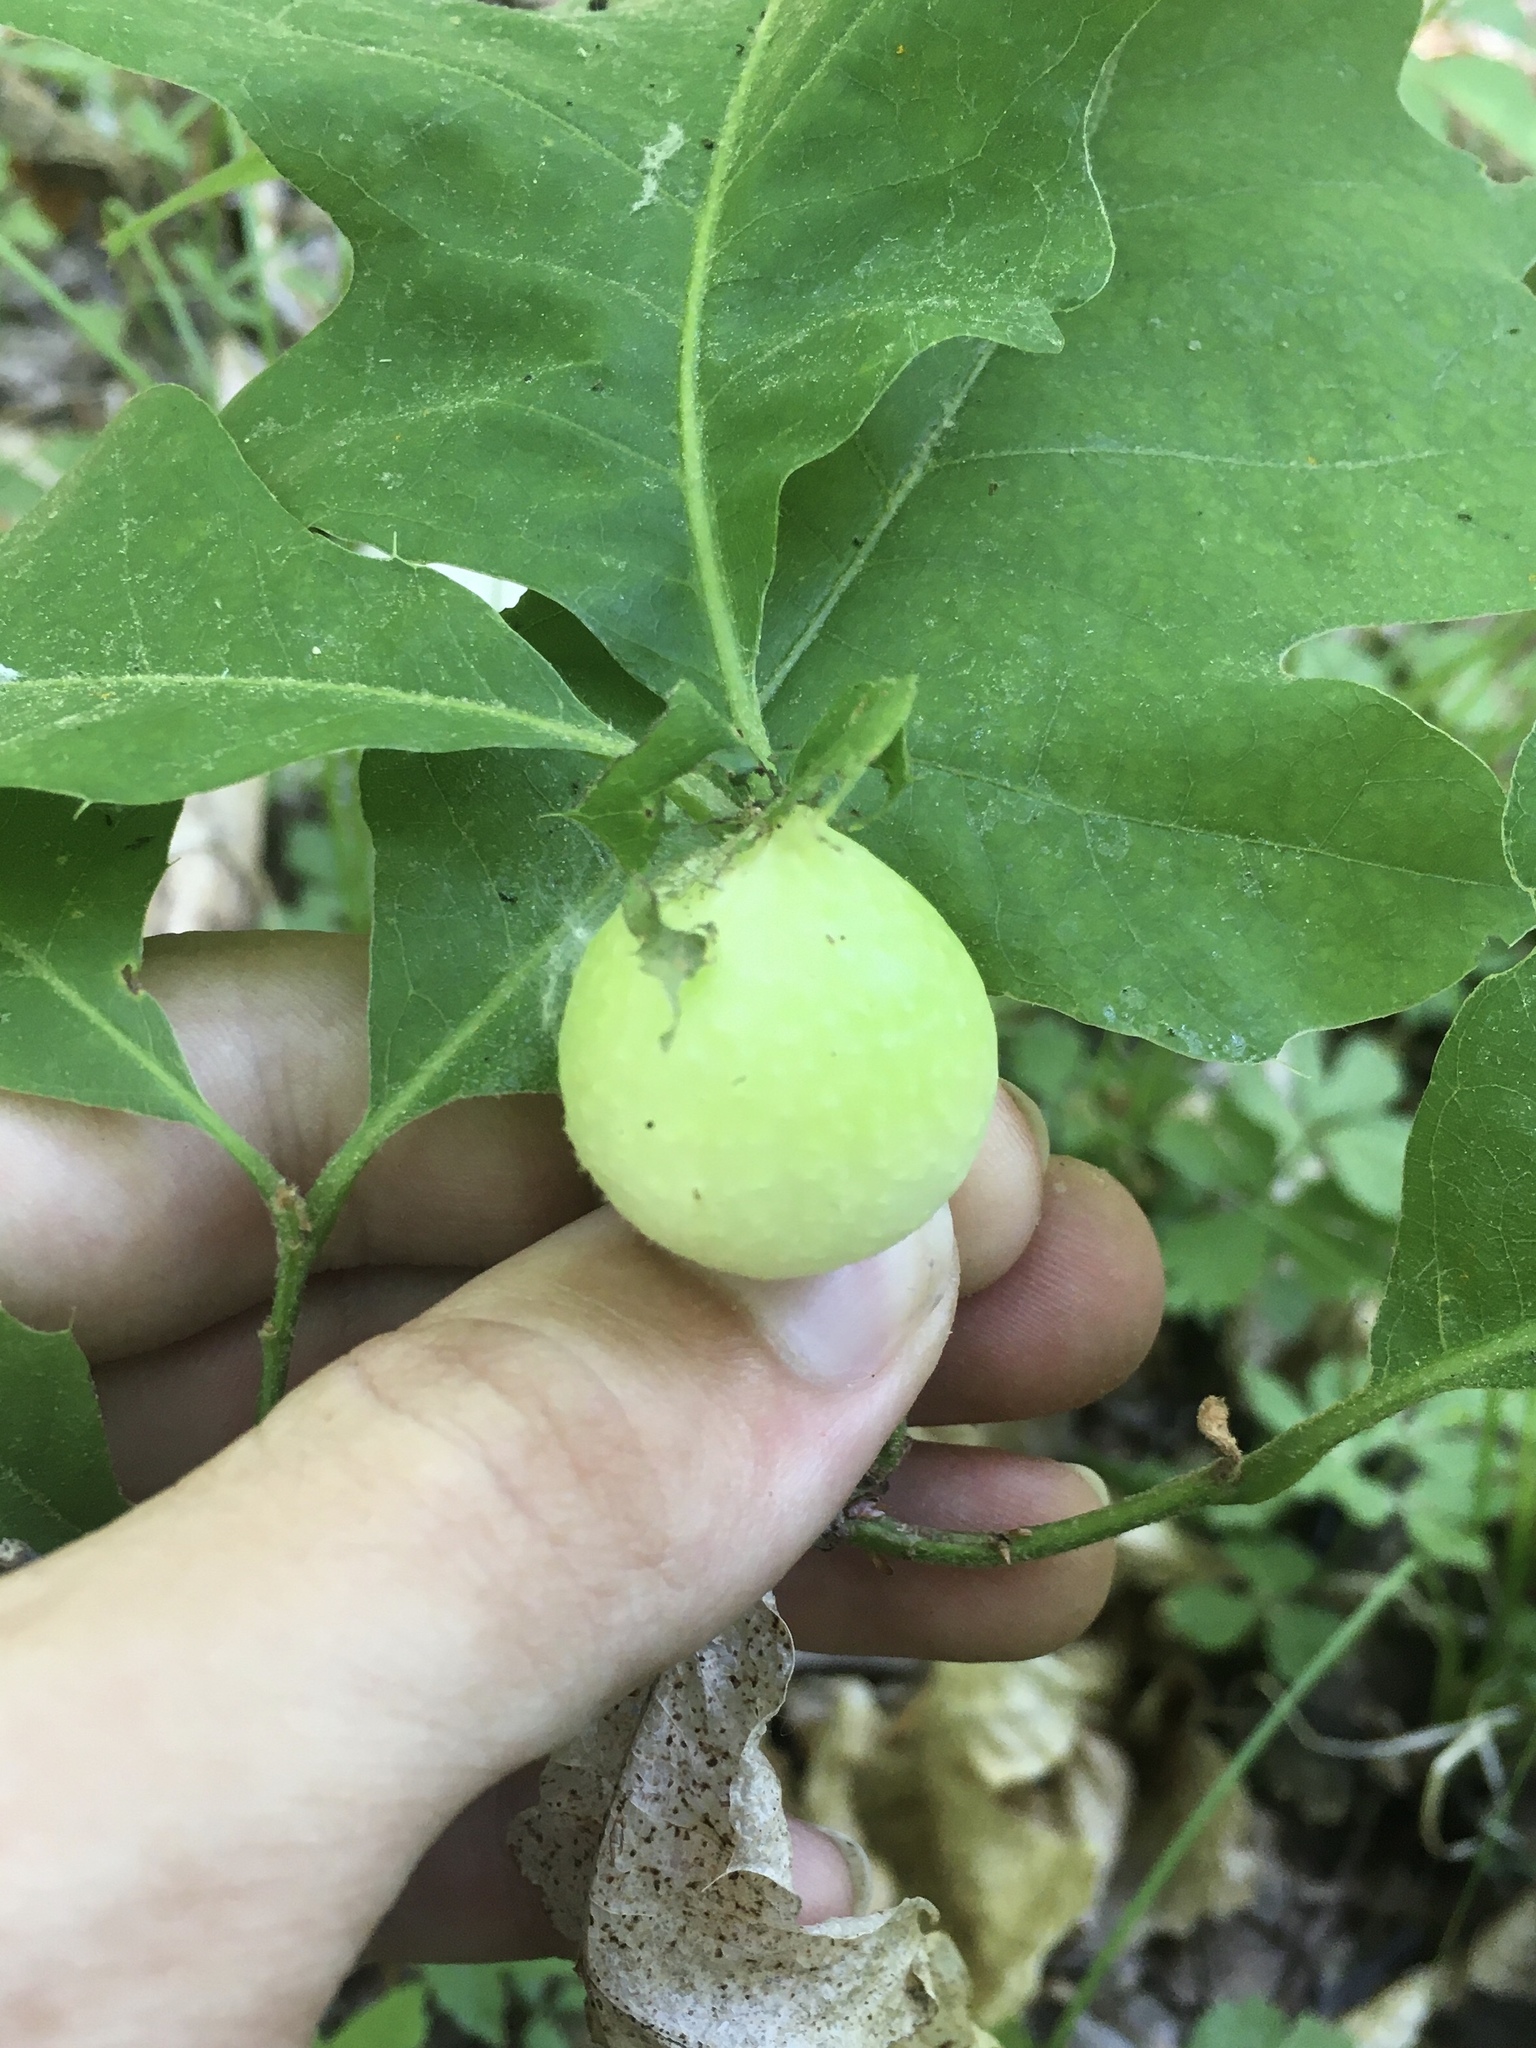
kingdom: Animalia
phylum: Arthropoda
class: Insecta
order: Hymenoptera
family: Cynipidae
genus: Amphibolips
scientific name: Amphibolips
